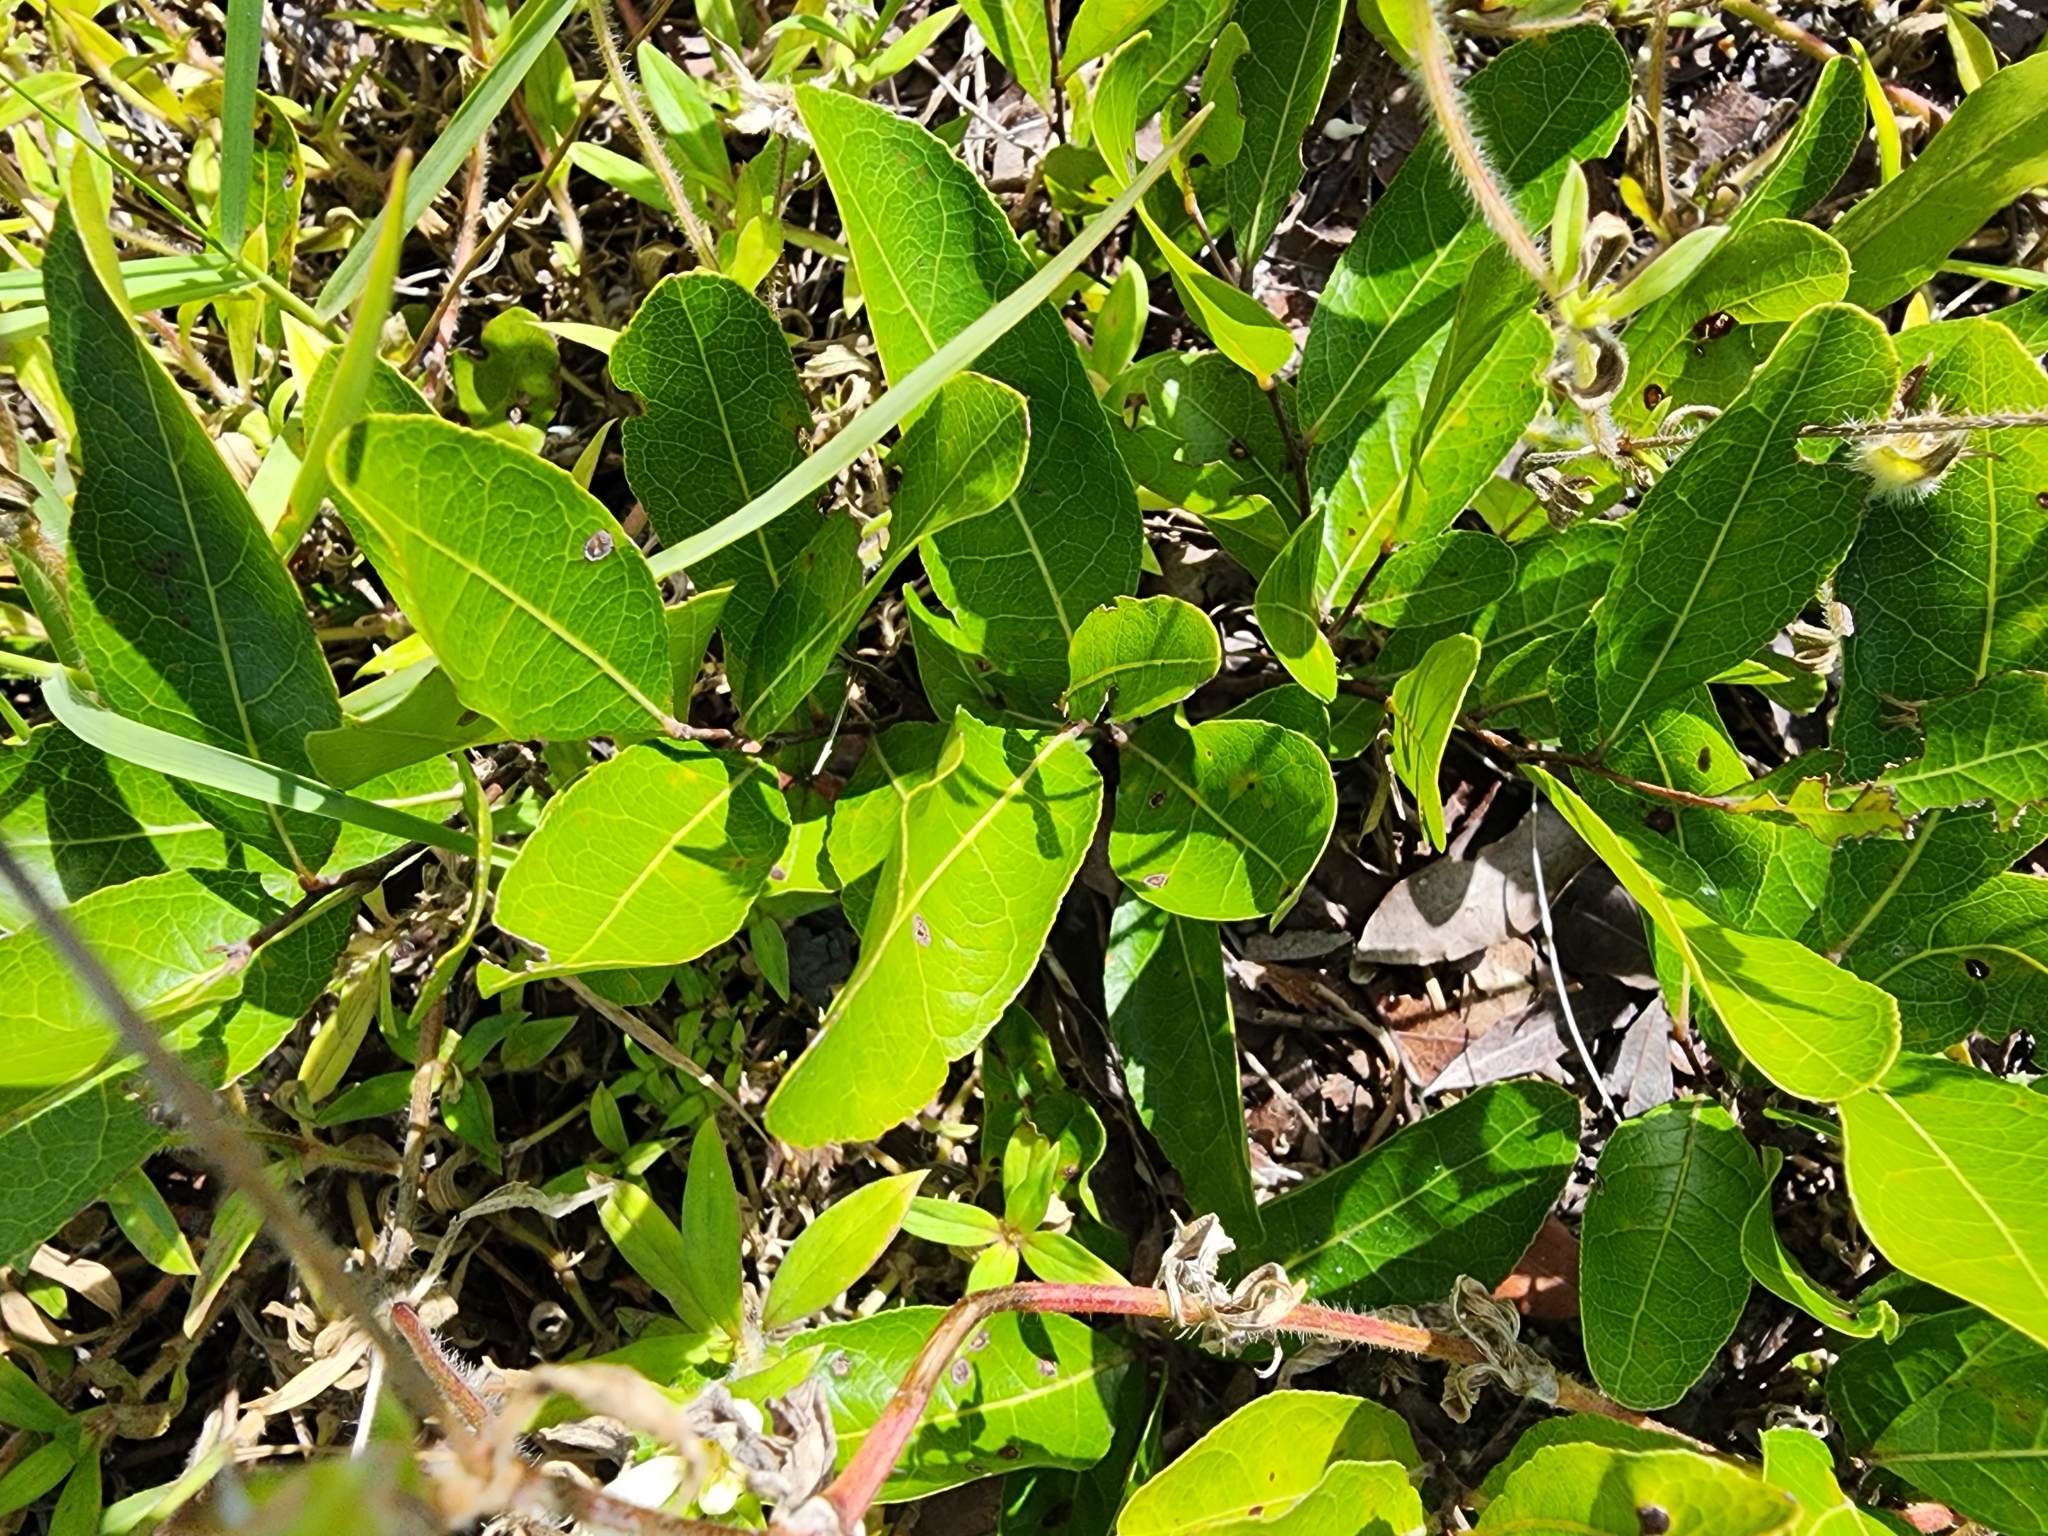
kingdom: Plantae
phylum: Tracheophyta
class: Magnoliopsida
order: Malpighiales
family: Chrysobalanaceae
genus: Geobalanus
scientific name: Geobalanus oblongifolius
